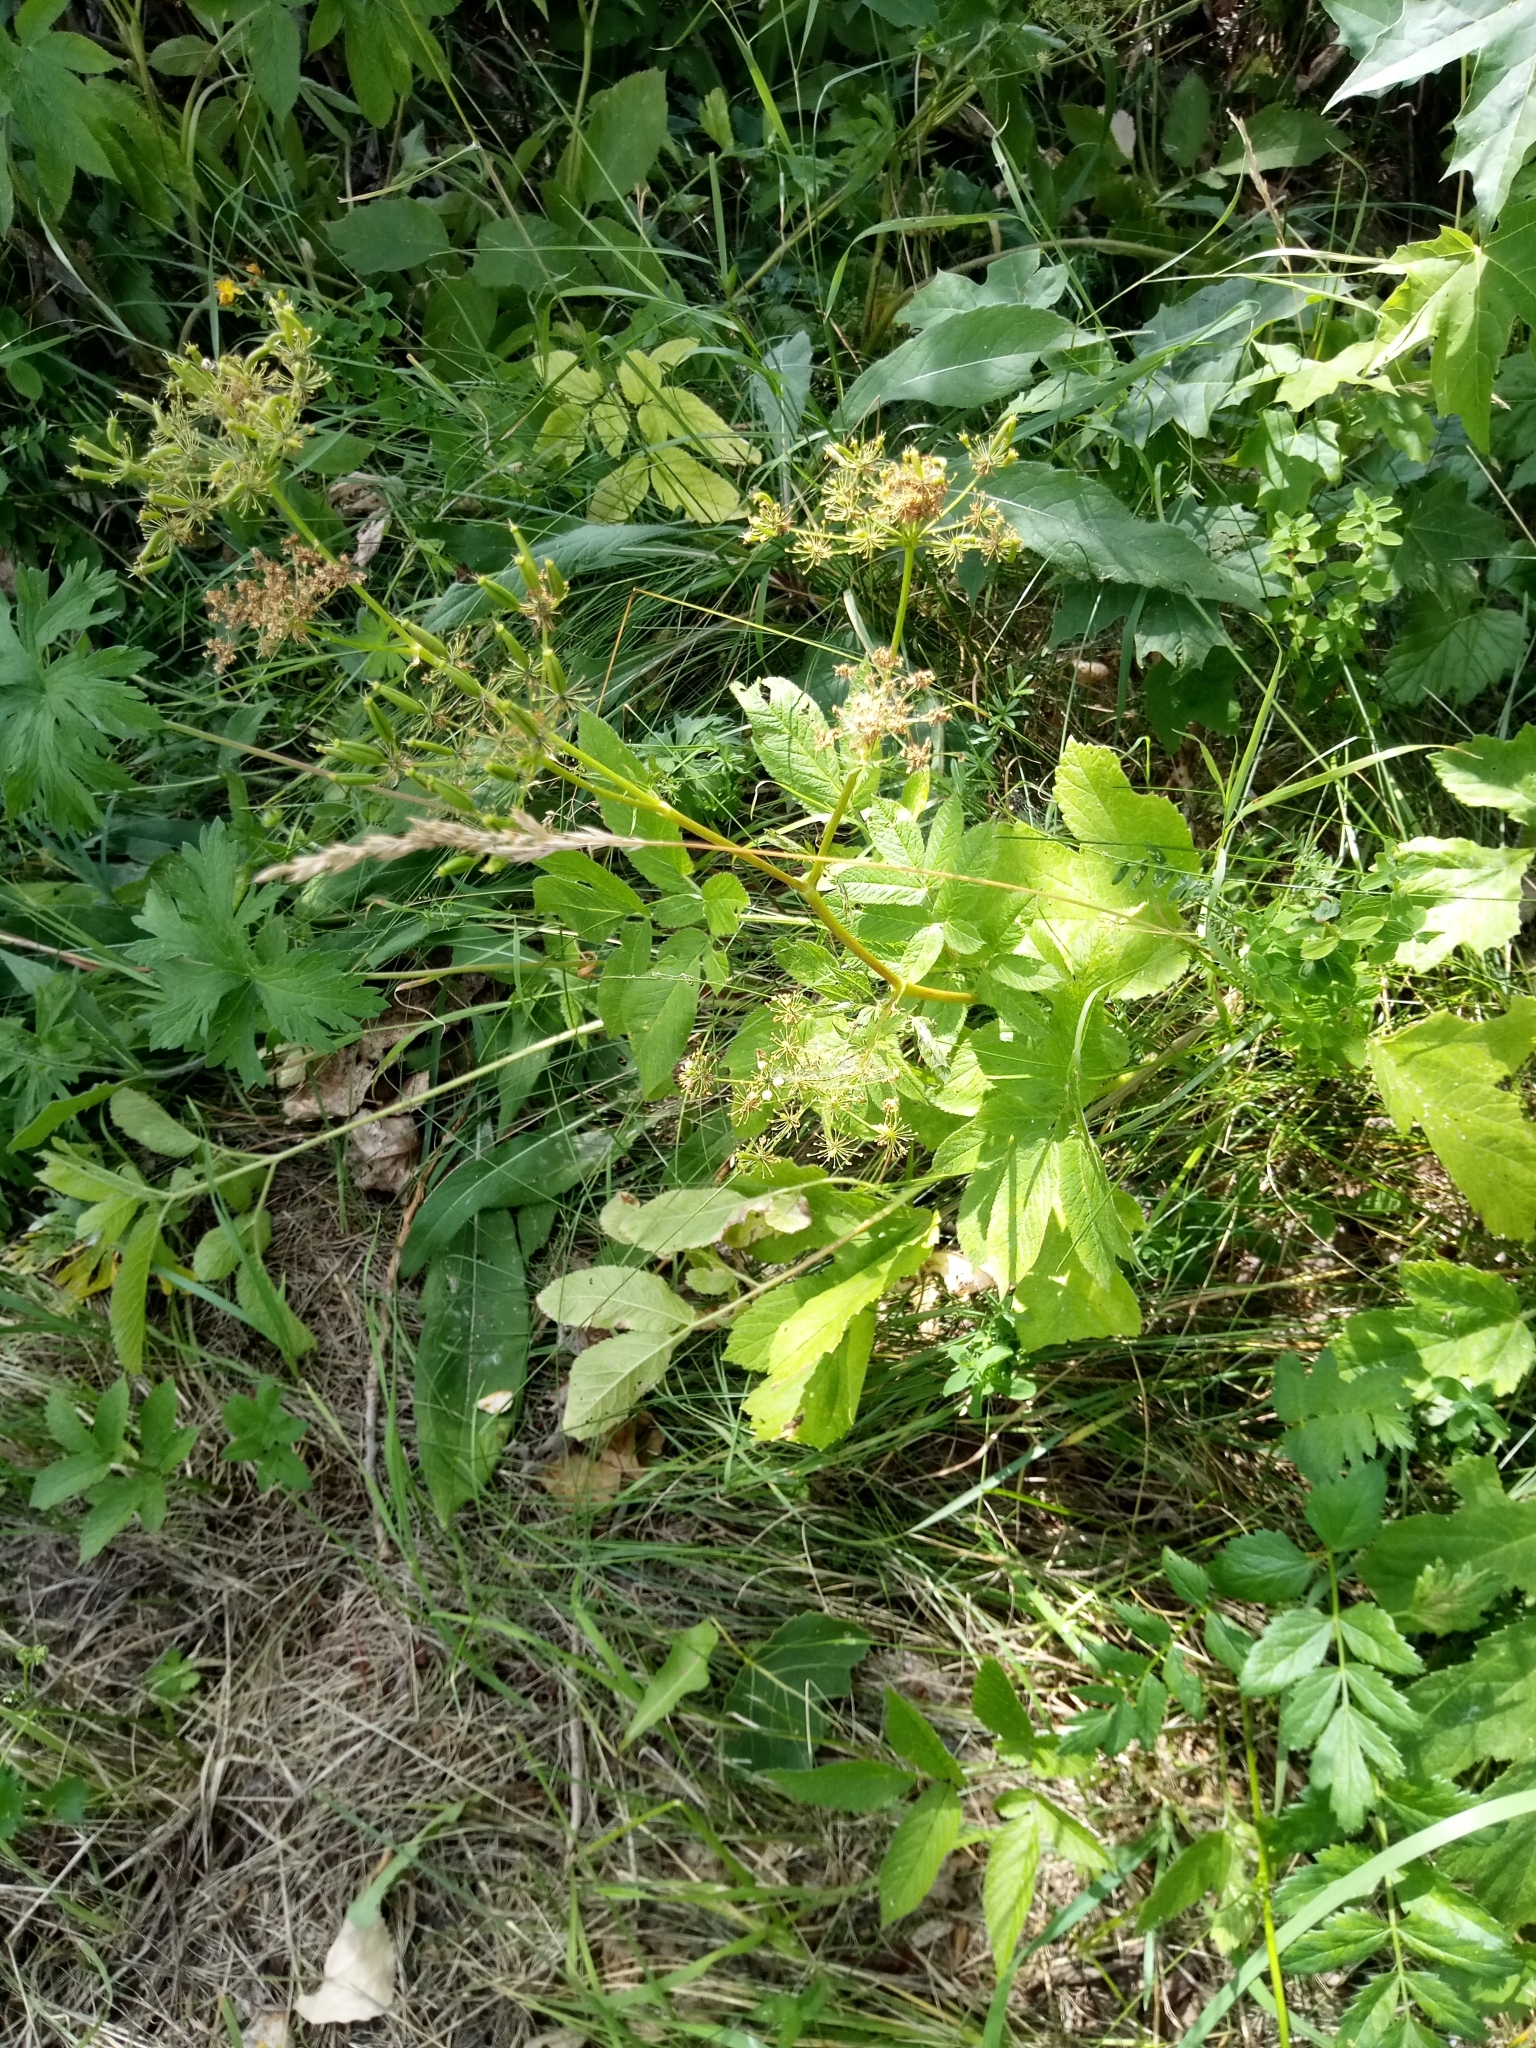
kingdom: Plantae
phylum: Tracheophyta
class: Magnoliopsida
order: Apiales
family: Apiaceae
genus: Chaerophyllum
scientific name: Chaerophyllum aromaticum
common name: Broadleaf chervil
